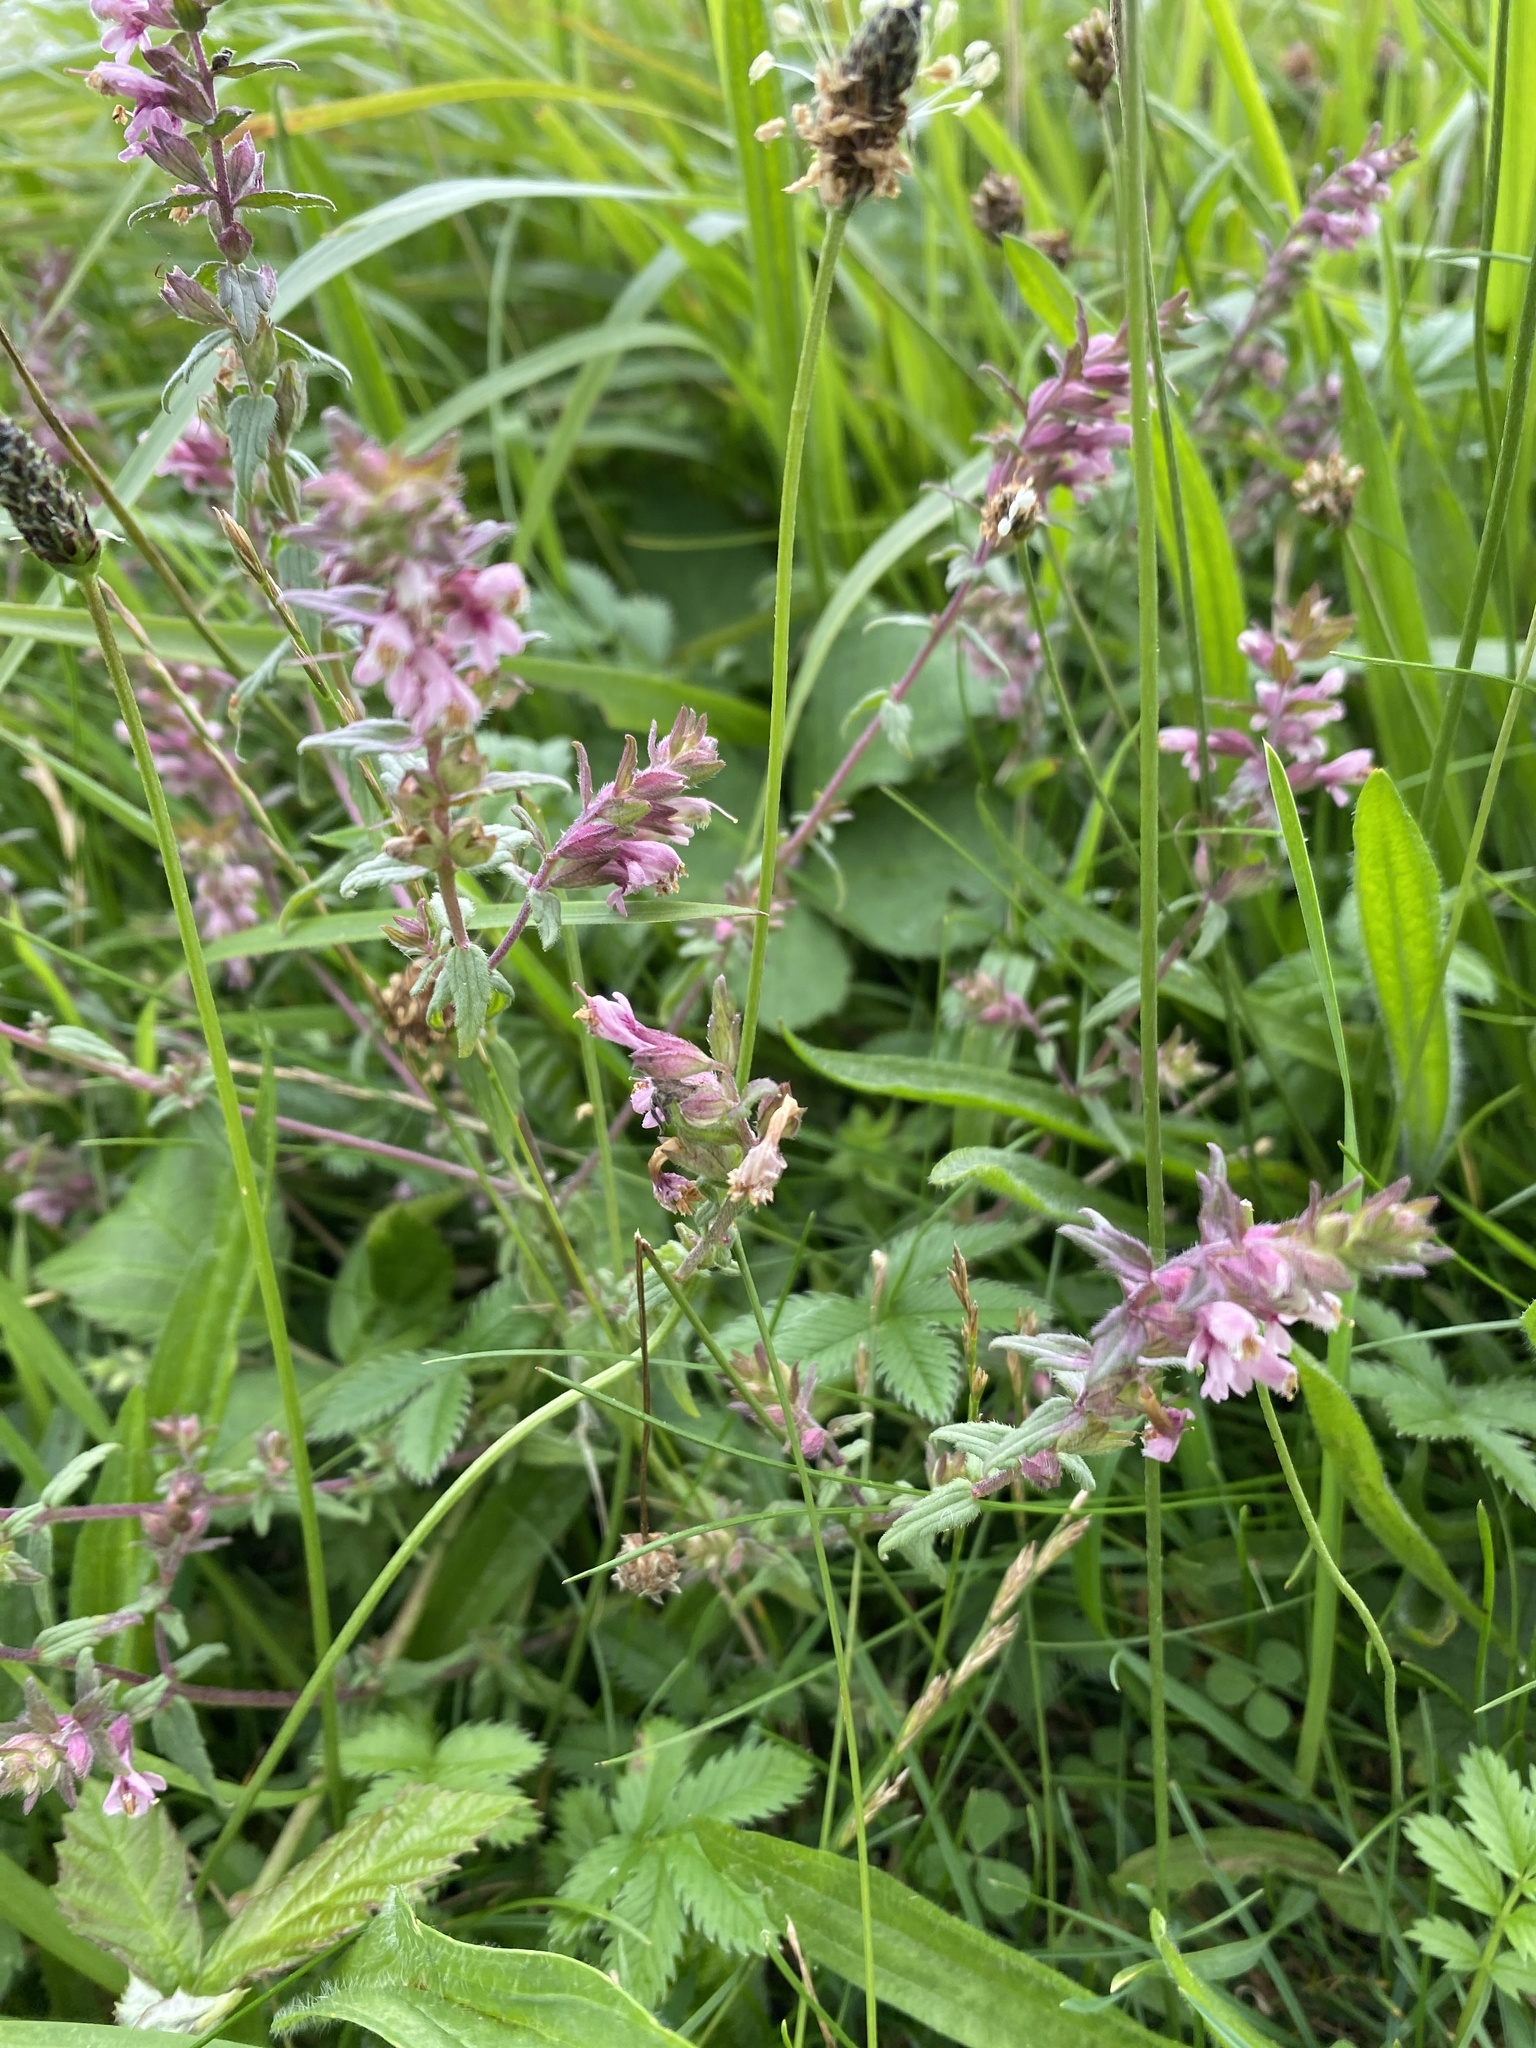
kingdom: Plantae
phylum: Tracheophyta
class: Magnoliopsida
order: Lamiales
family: Orobanchaceae
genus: Odontites
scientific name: Odontites vulgaris
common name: Broomrape
